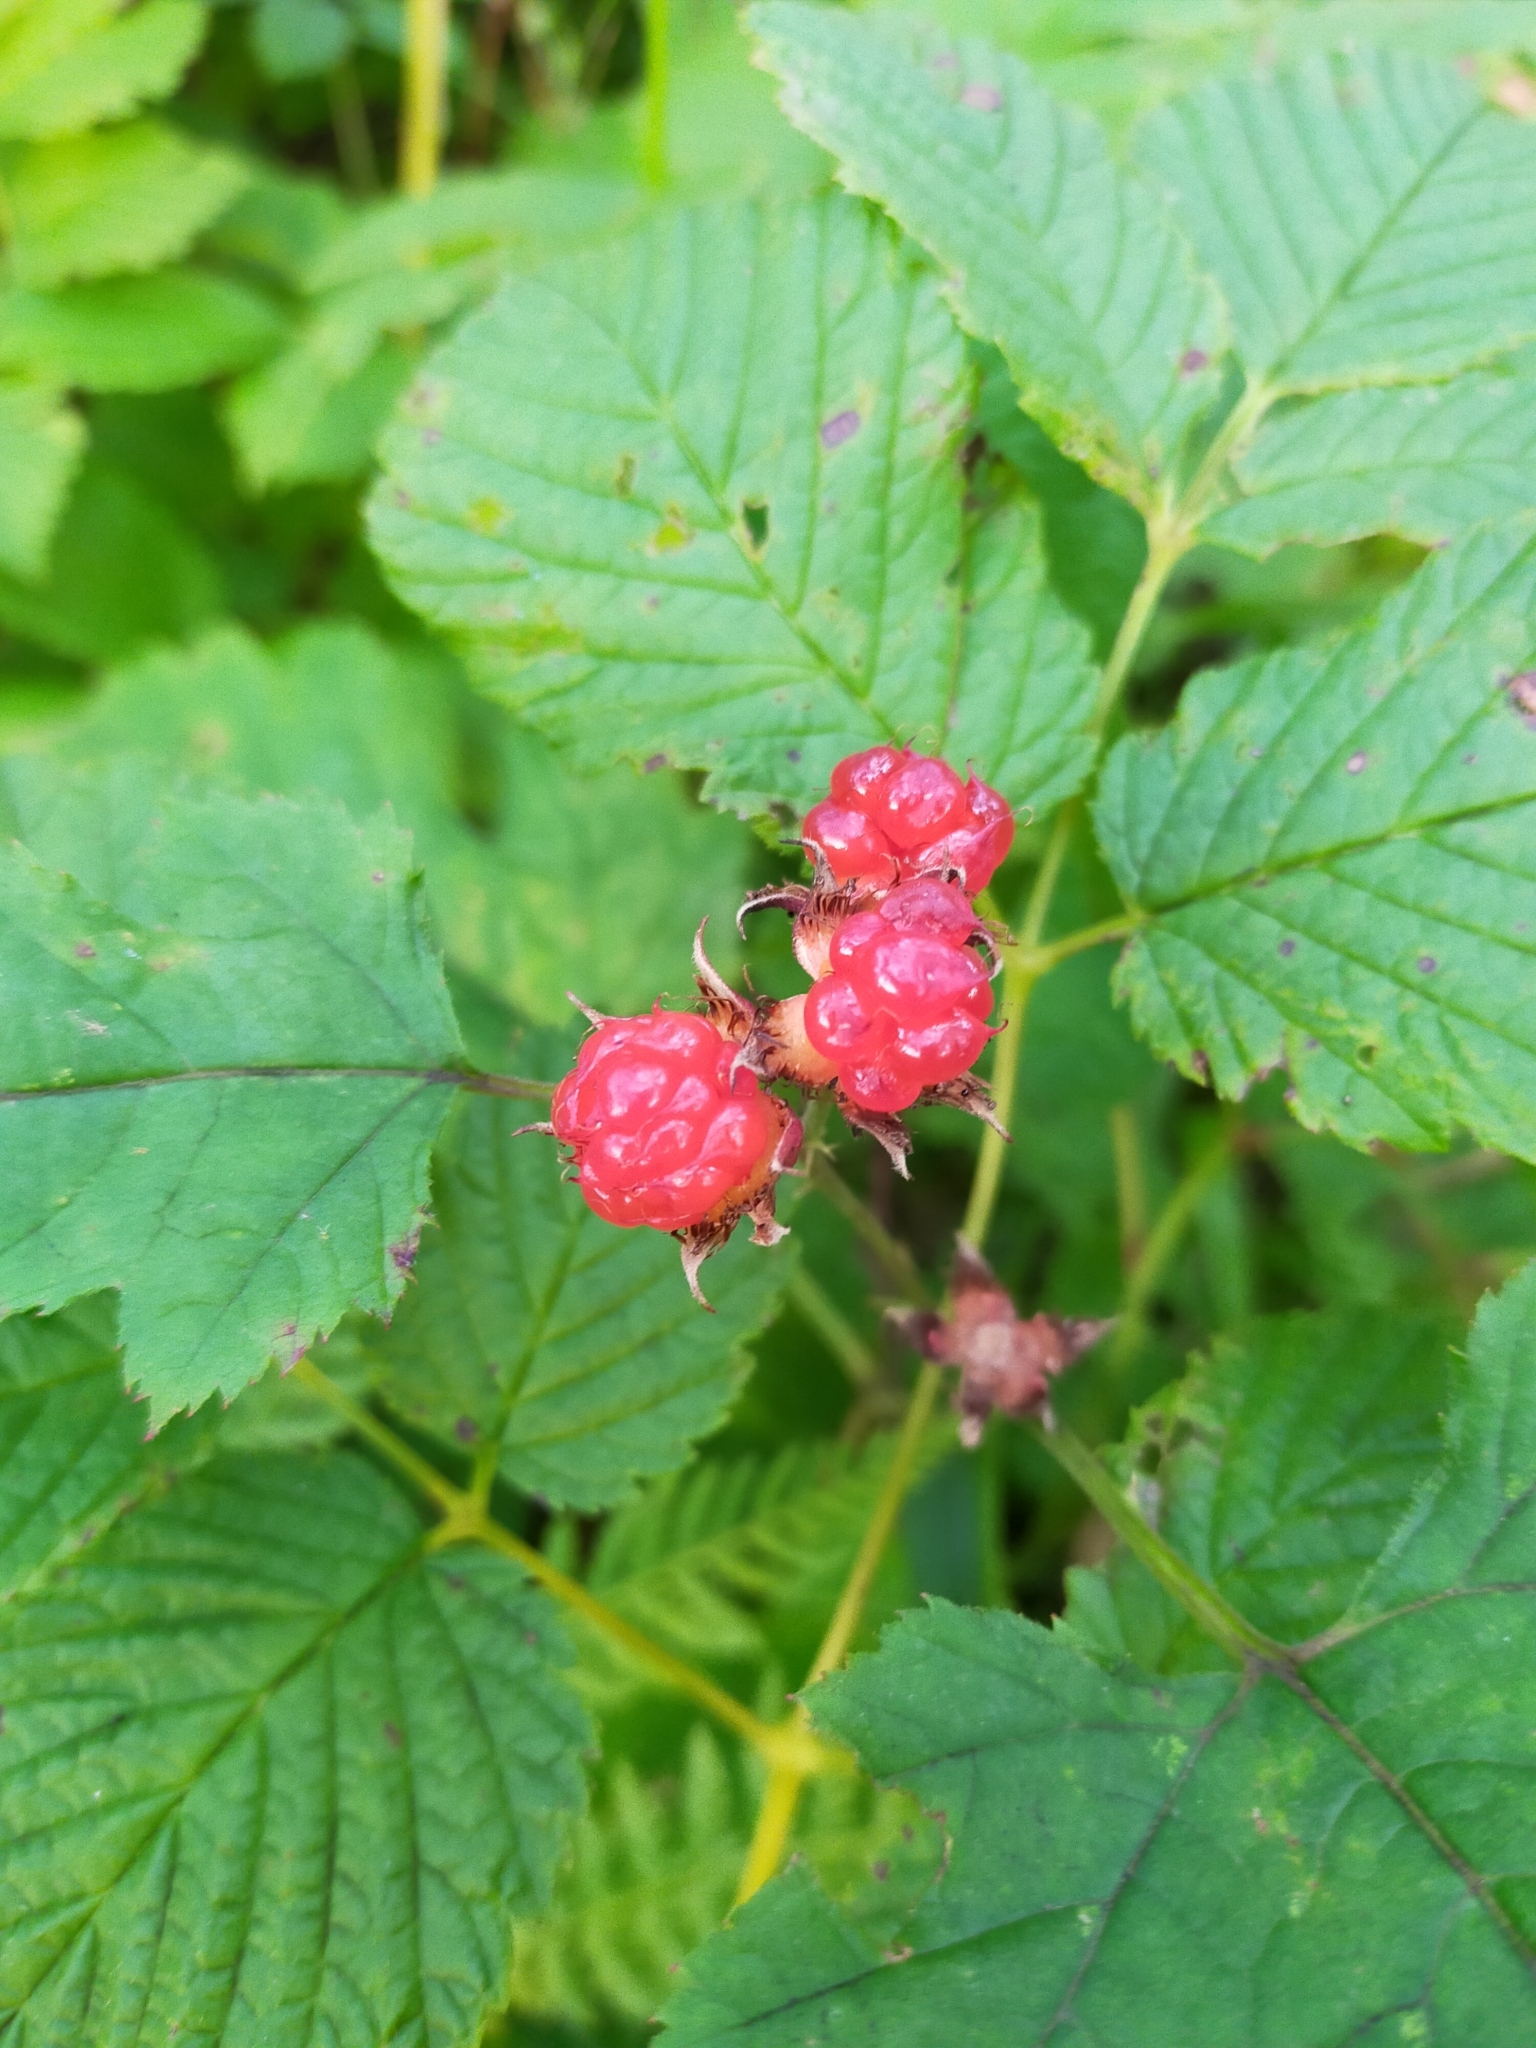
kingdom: Plantae
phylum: Tracheophyta
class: Magnoliopsida
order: Rosales
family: Rosaceae
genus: Rubus
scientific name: Rubus crataegifolius
